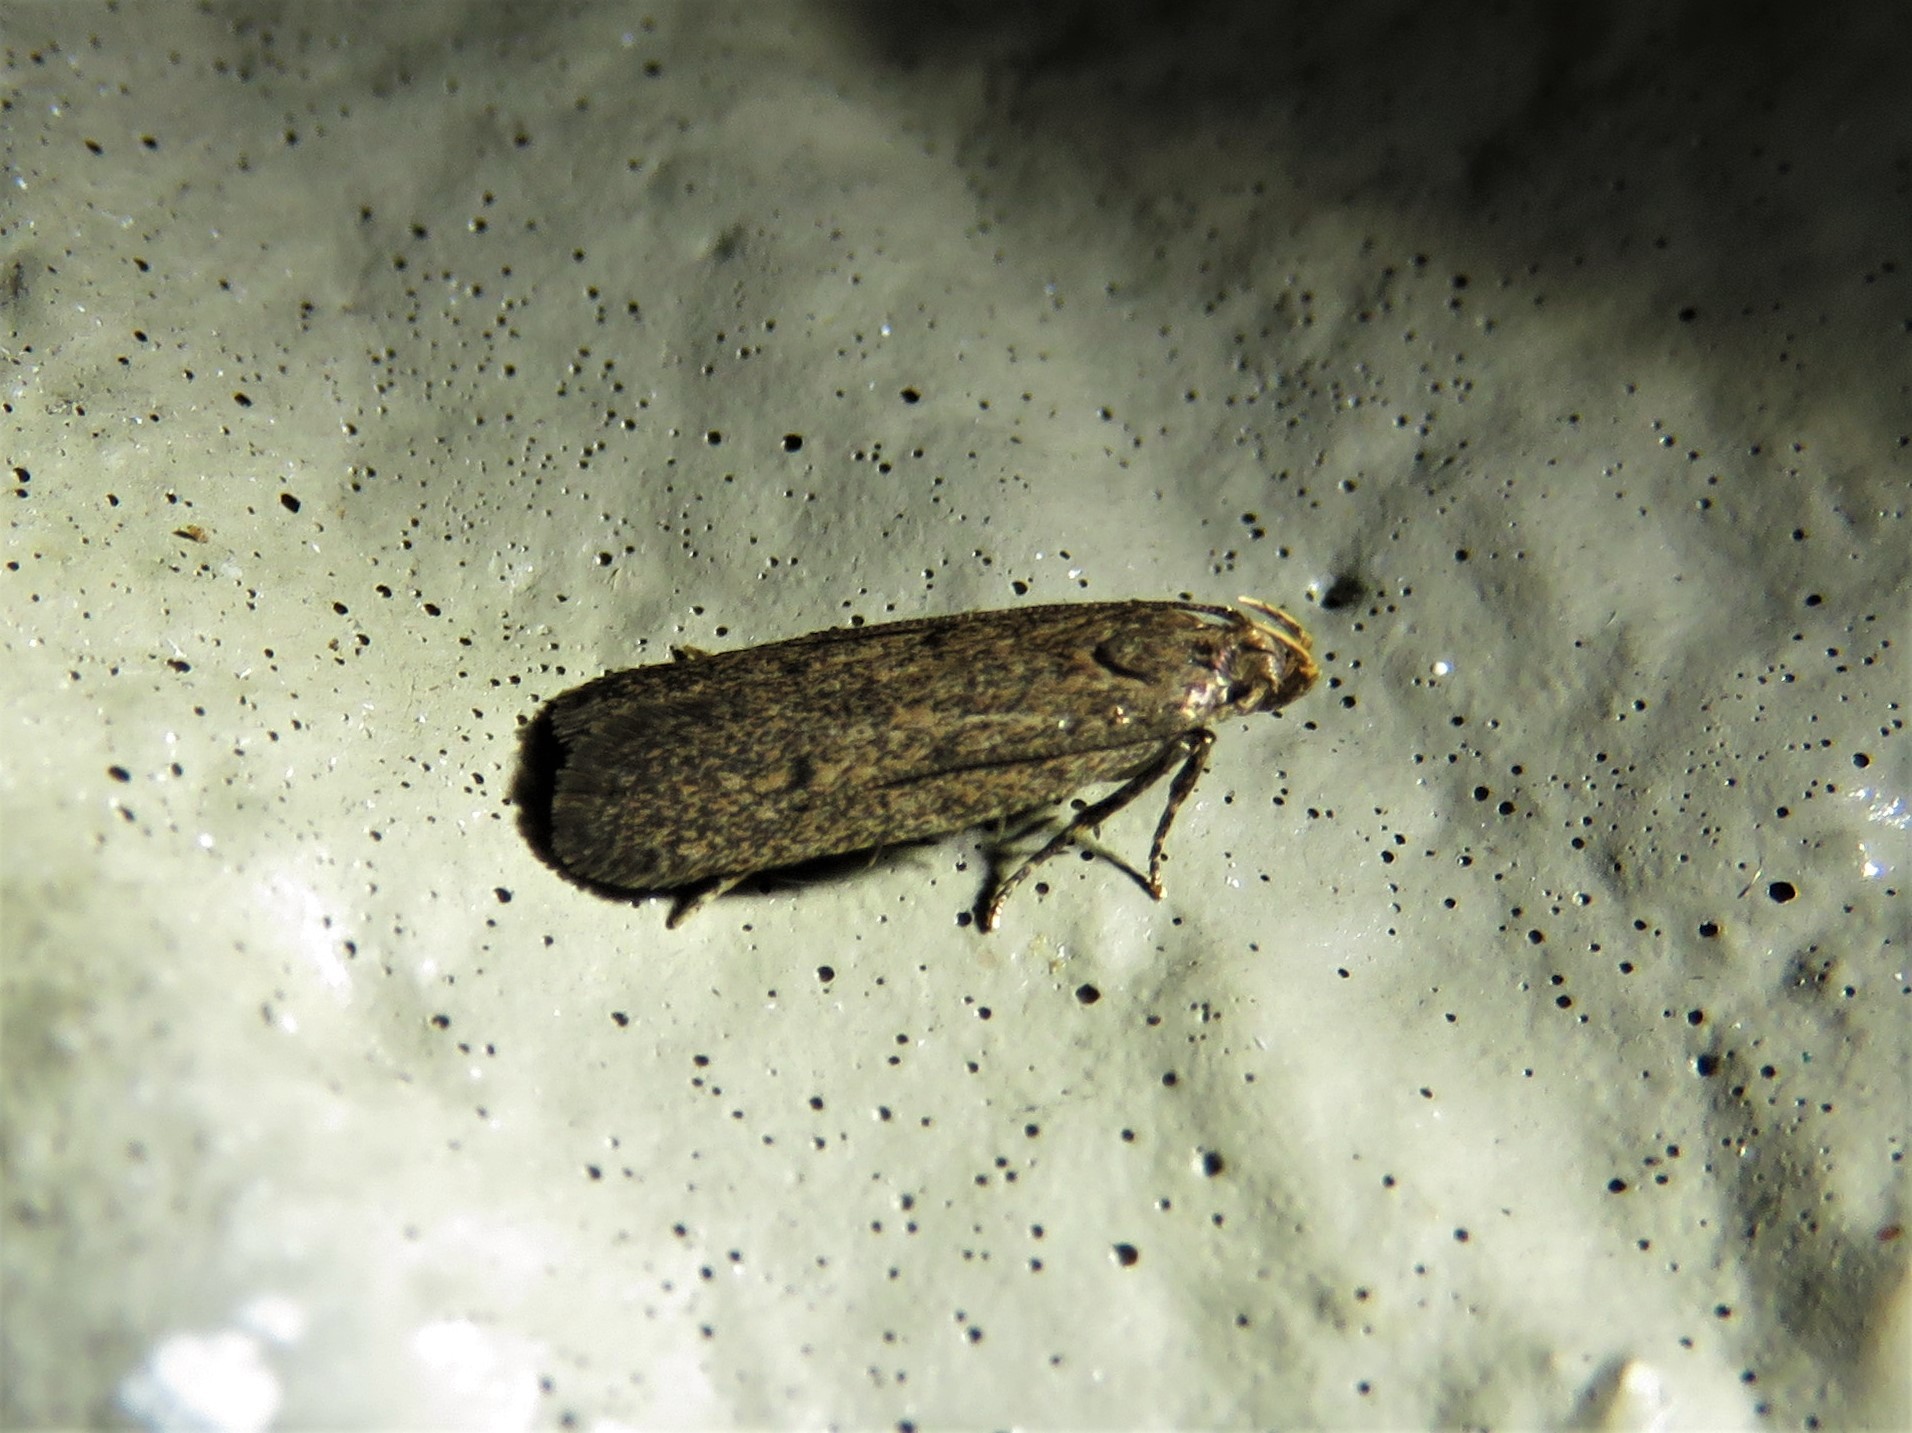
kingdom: Animalia
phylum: Arthropoda
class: Insecta
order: Lepidoptera
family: Autostichidae
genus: Glyphidocera
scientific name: Glyphidocera juniperella
